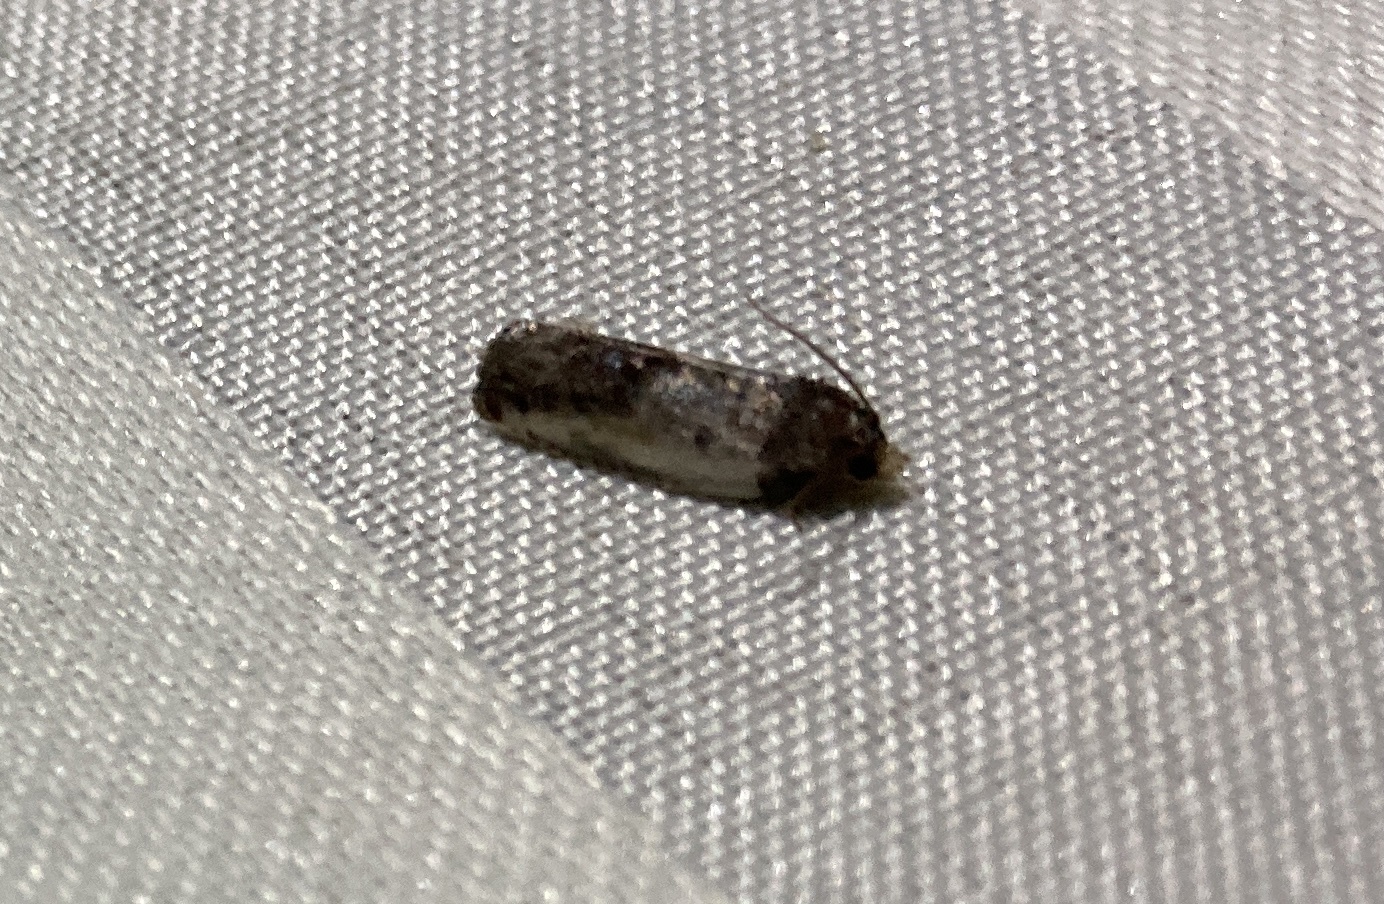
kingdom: Animalia
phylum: Arthropoda
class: Insecta
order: Lepidoptera
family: Tortricidae
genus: Argyroploce
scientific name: Argyroploce chlorosaris
